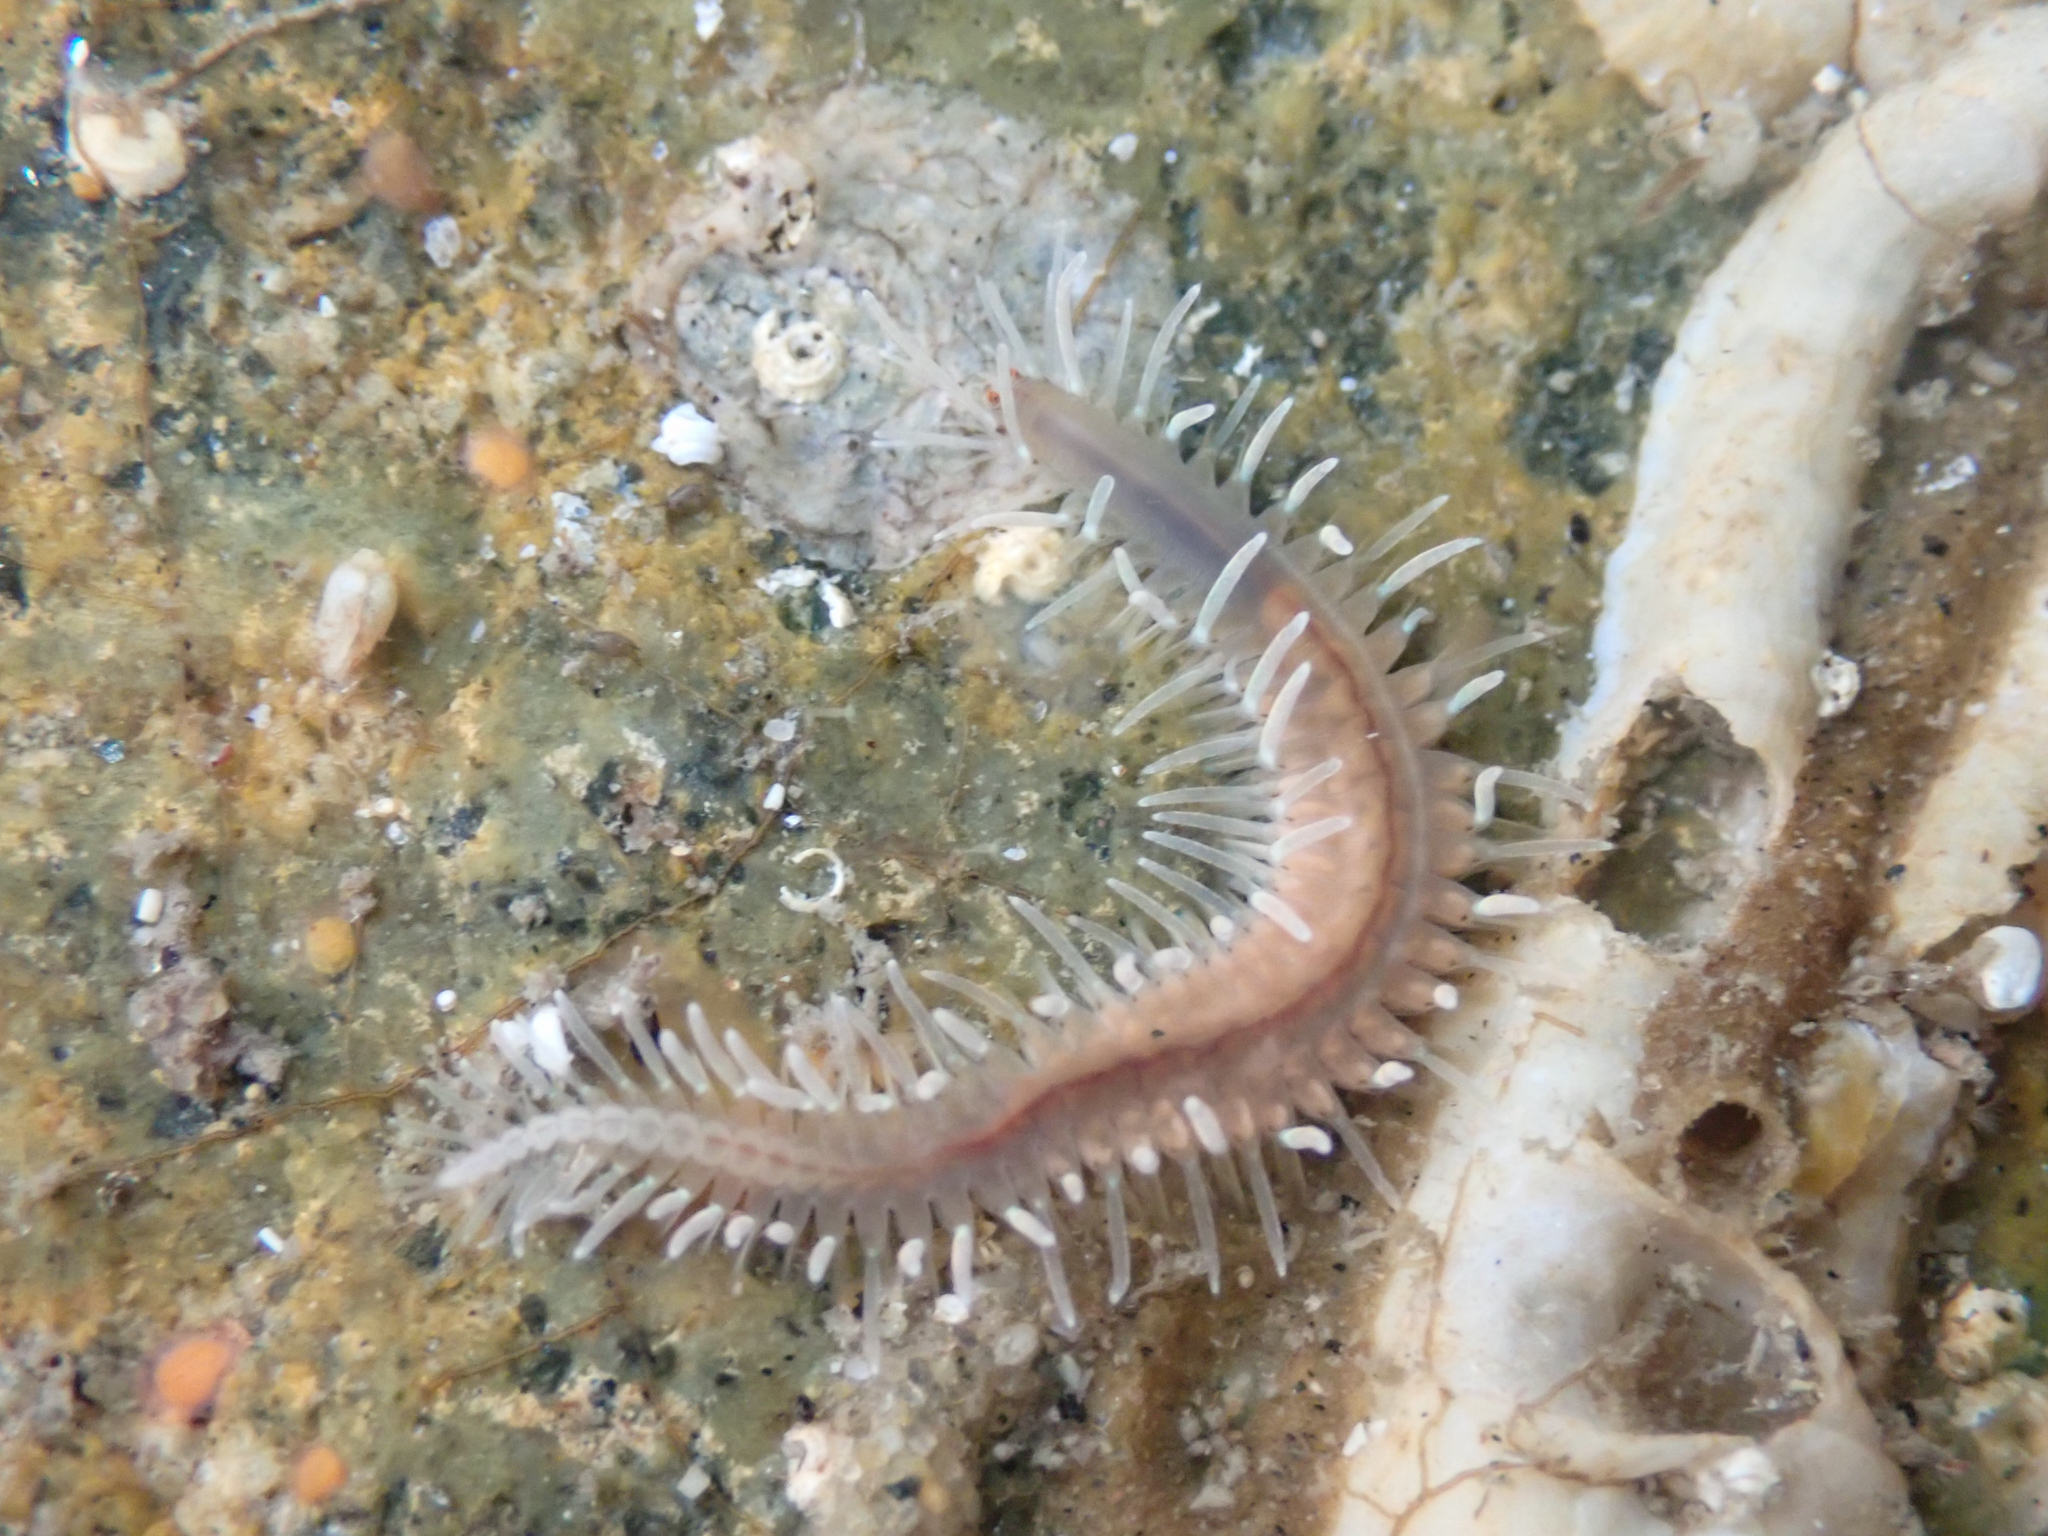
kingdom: Animalia
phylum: Annelida
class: Polychaeta
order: Phyllodocida
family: Hesionidae
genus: Amphiduros
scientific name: Amphiduros fuscescens
